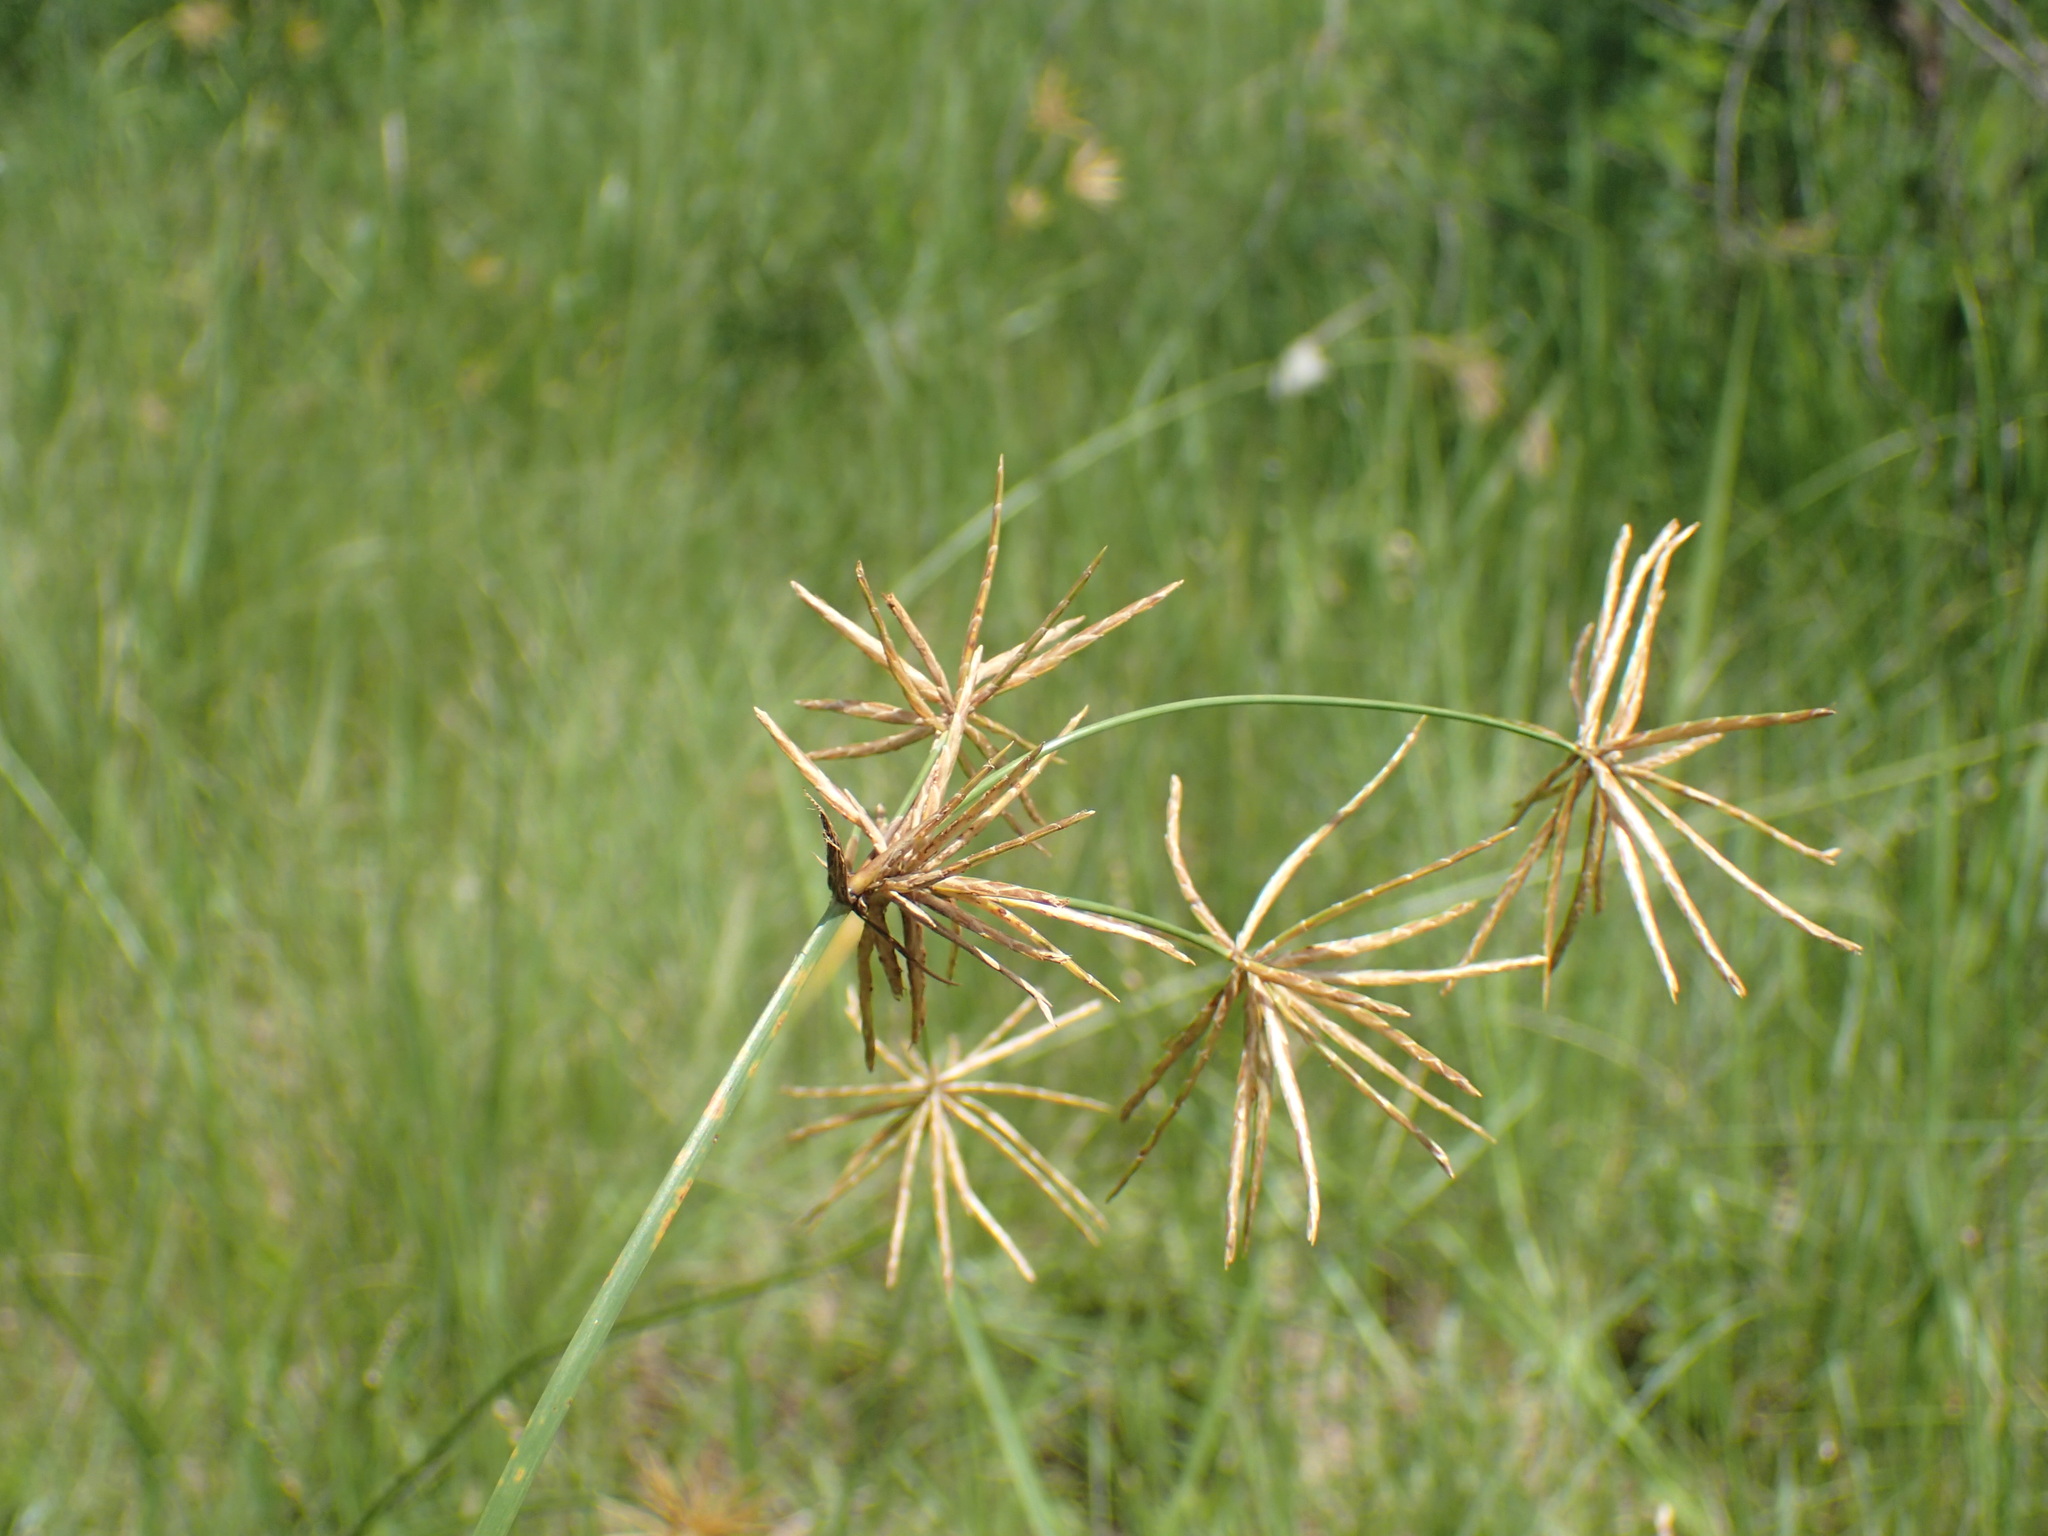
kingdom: Plantae
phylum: Tracheophyta
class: Liliopsida
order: Poales
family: Cyperaceae
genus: Cyperus
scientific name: Cyperus natalensis
